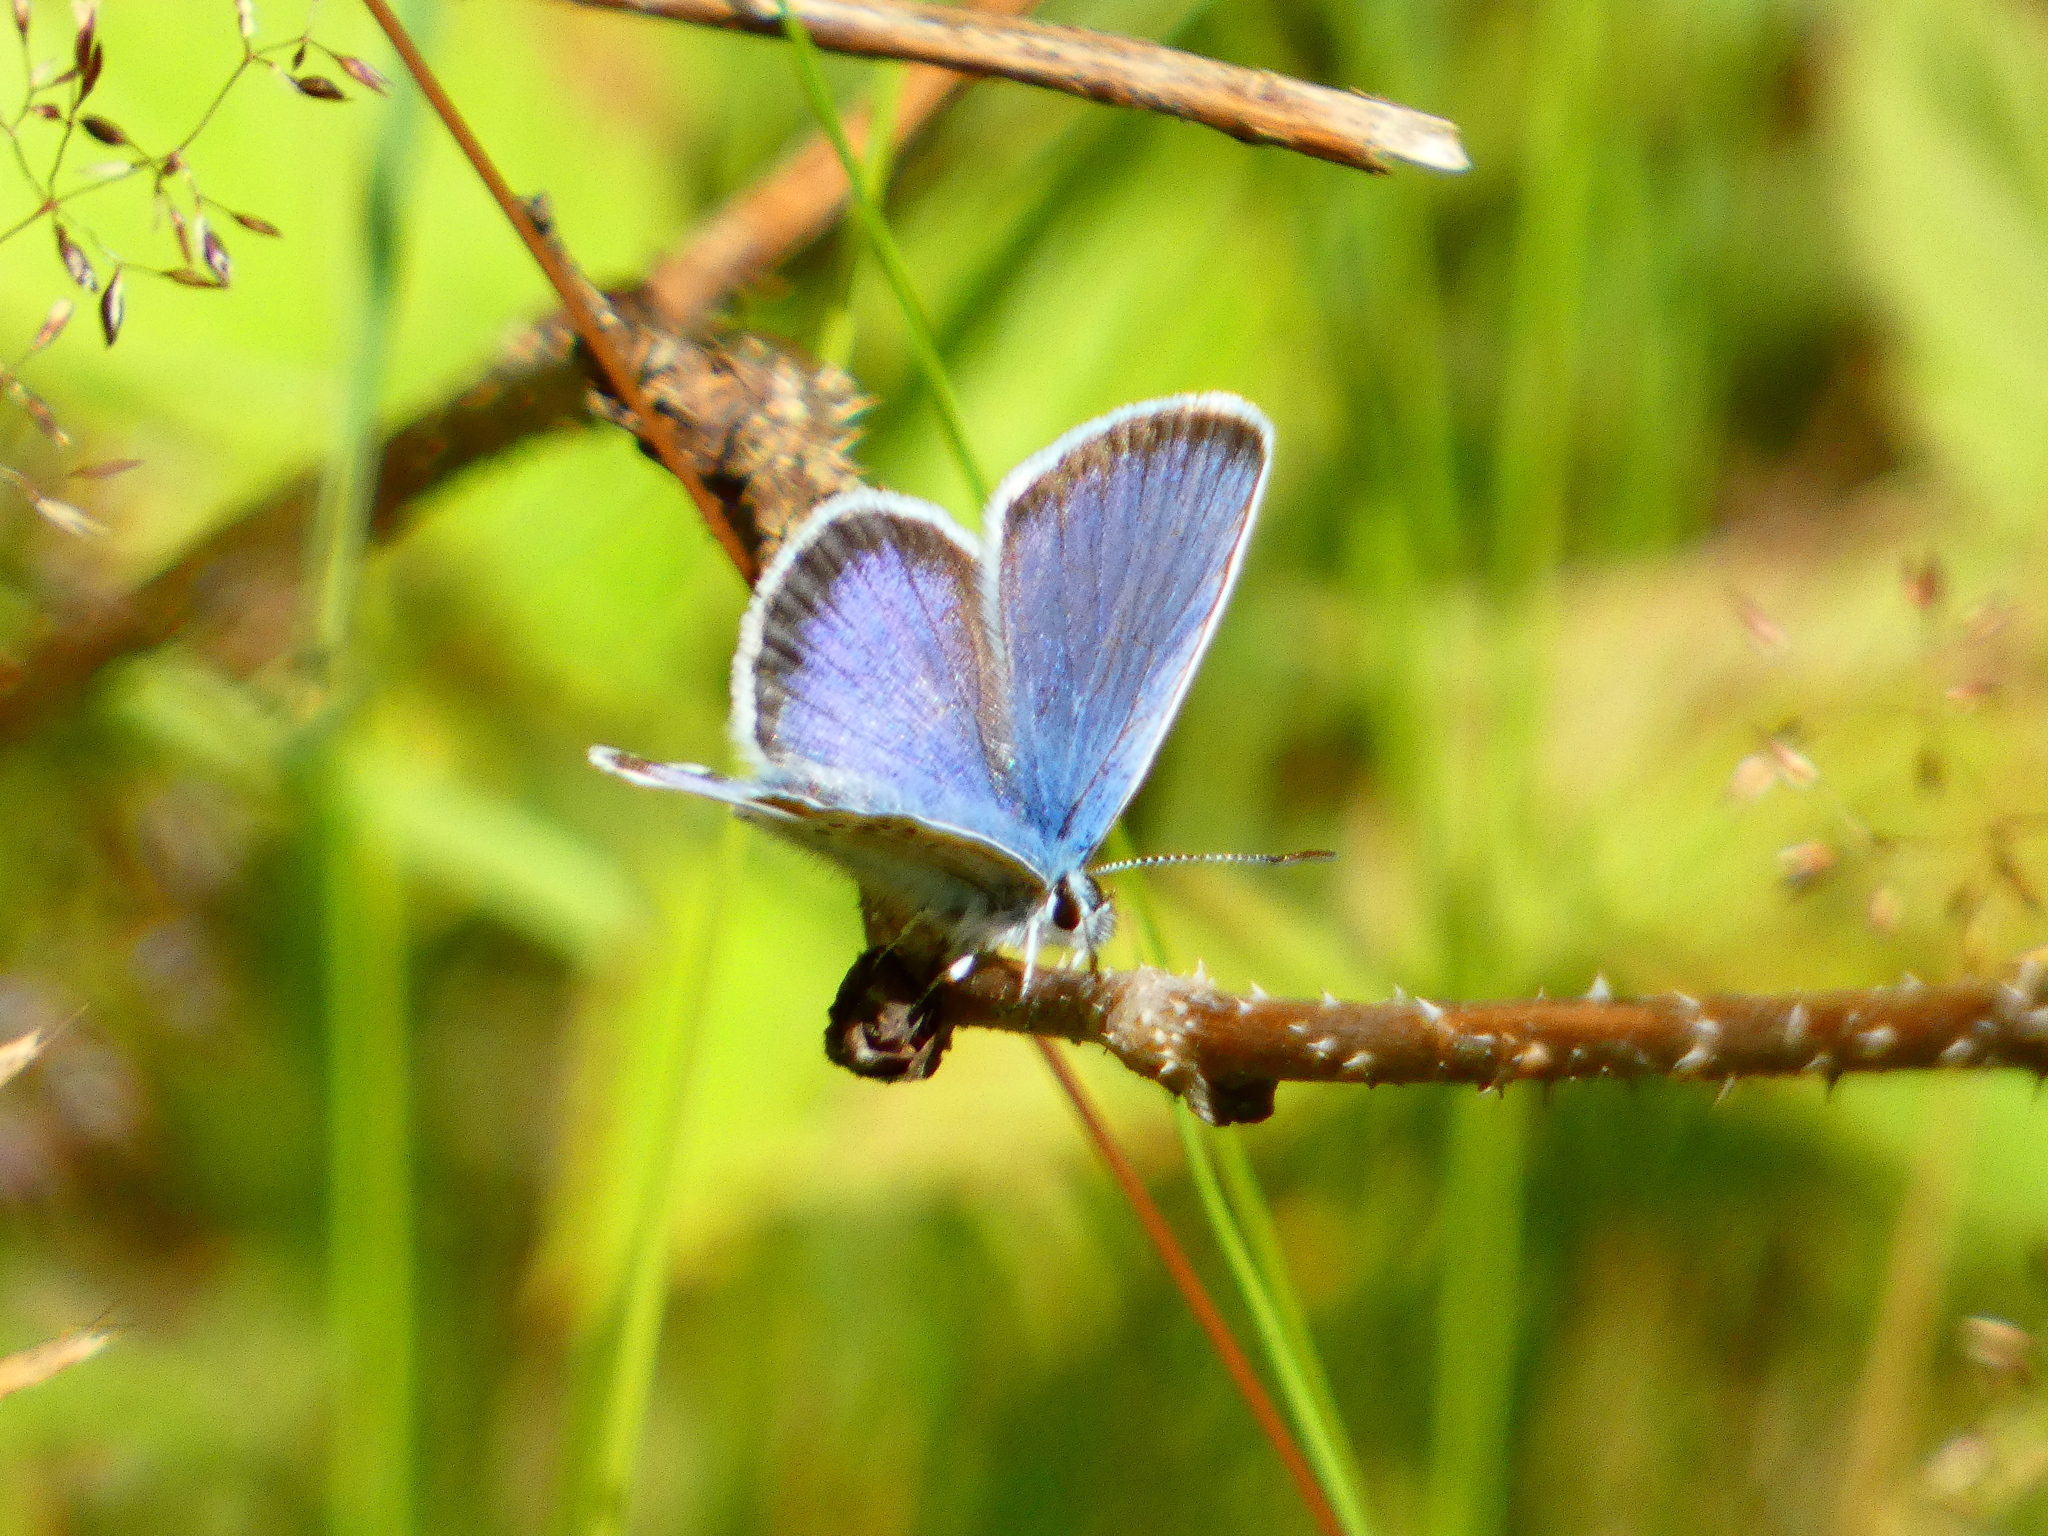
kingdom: Animalia
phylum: Arthropoda
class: Insecta
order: Lepidoptera
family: Lycaenidae
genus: Plebejus
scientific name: Plebejus argus
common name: Silver-studded blue
